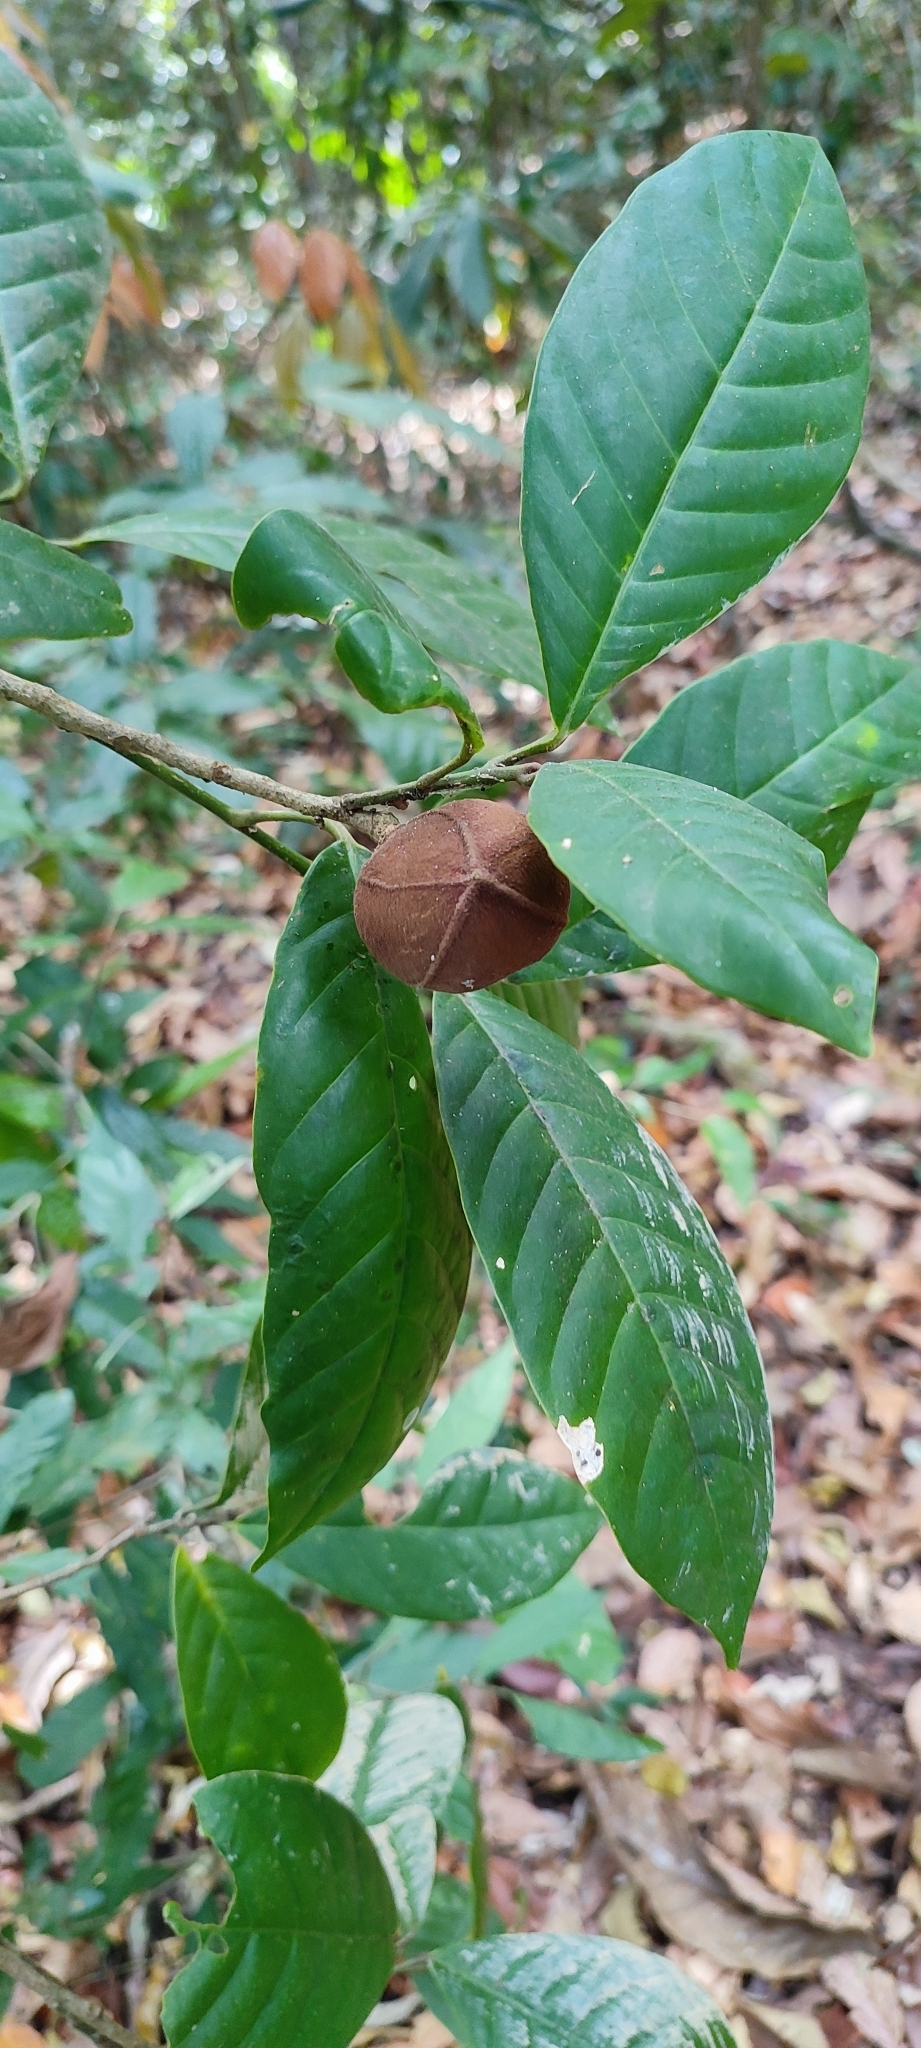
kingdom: Plantae
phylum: Tracheophyta
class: Magnoliopsida
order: Sapindales
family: Meliaceae
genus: Aglaia
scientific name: Aglaia simplicifolia
